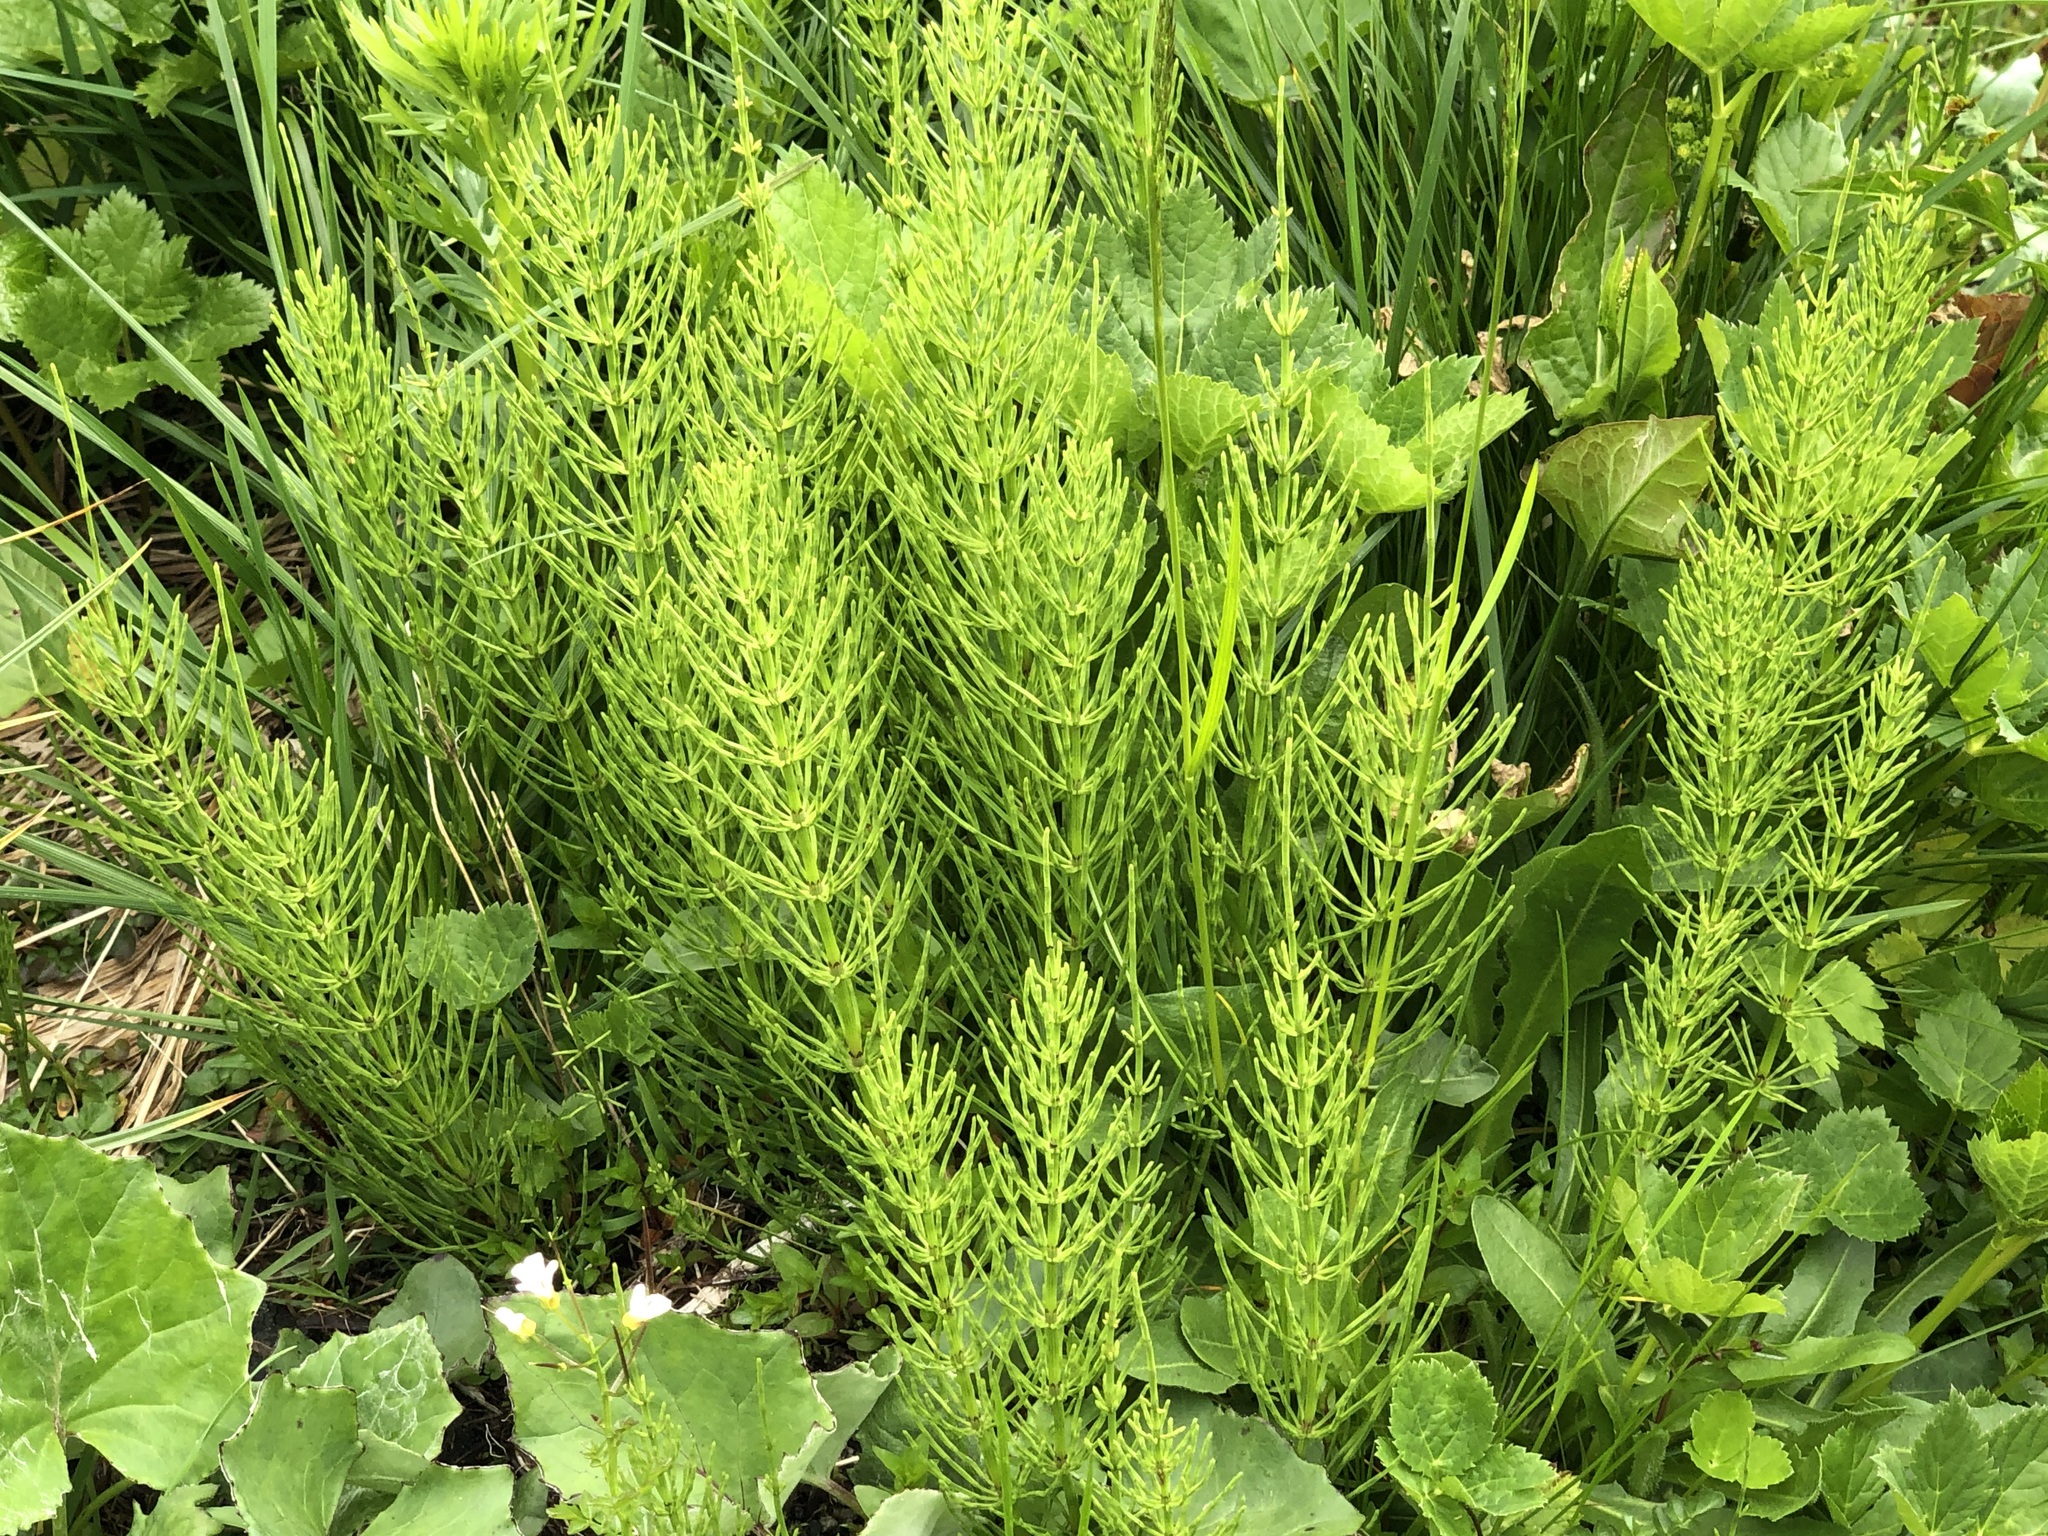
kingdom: Plantae
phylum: Tracheophyta
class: Polypodiopsida
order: Equisetales
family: Equisetaceae
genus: Equisetum
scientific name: Equisetum arvense
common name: Field horsetail
